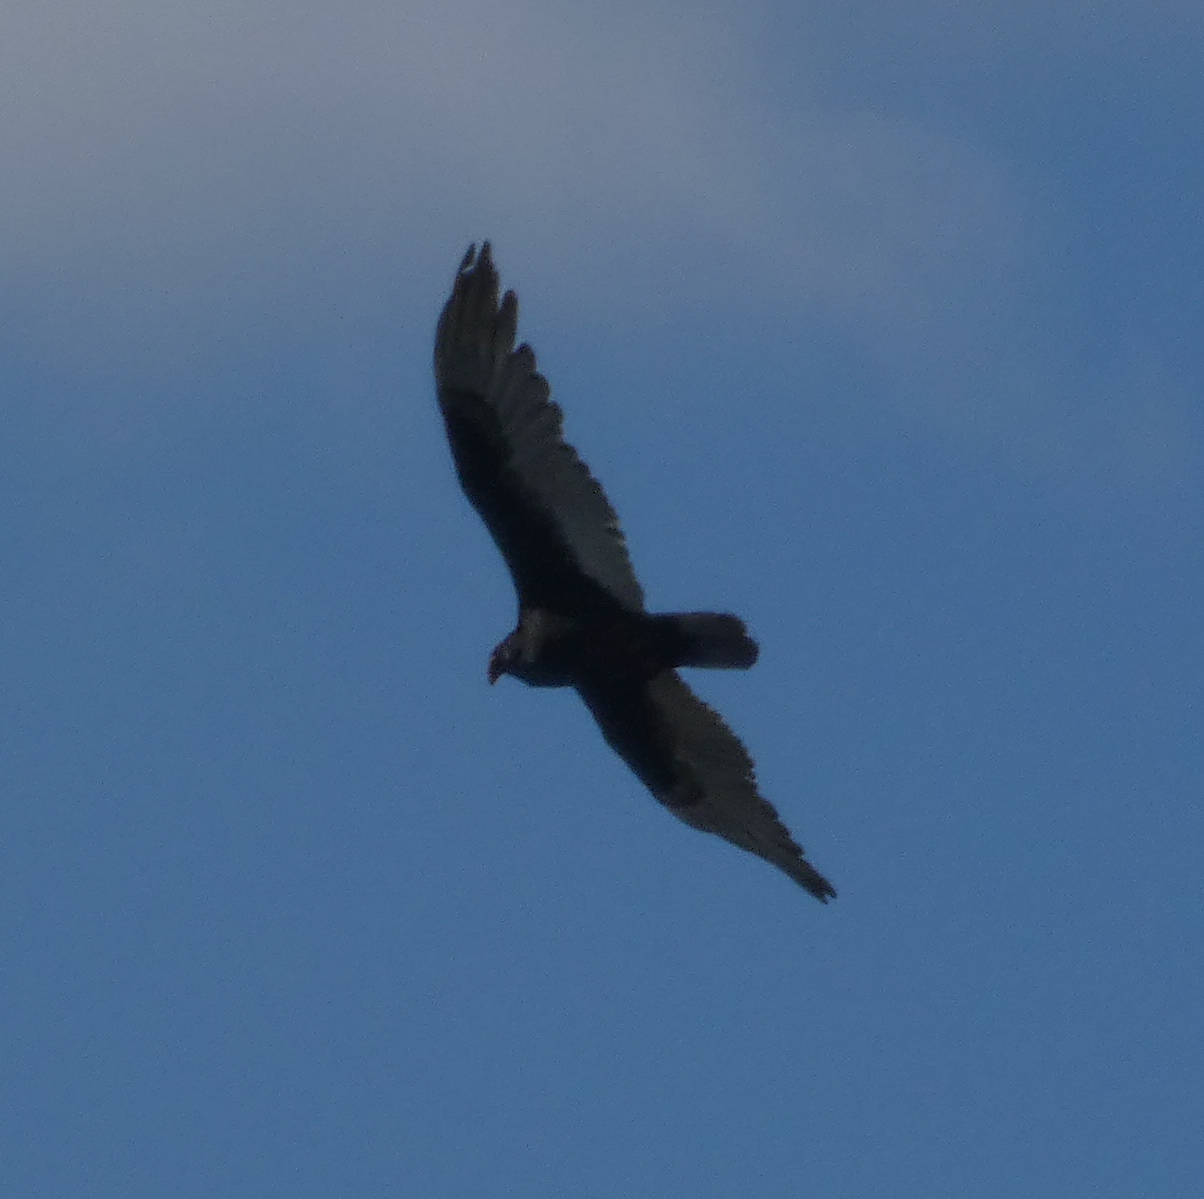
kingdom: Animalia
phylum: Chordata
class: Aves
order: Accipitriformes
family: Cathartidae
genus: Cathartes
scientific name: Cathartes aura
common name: Turkey vulture
